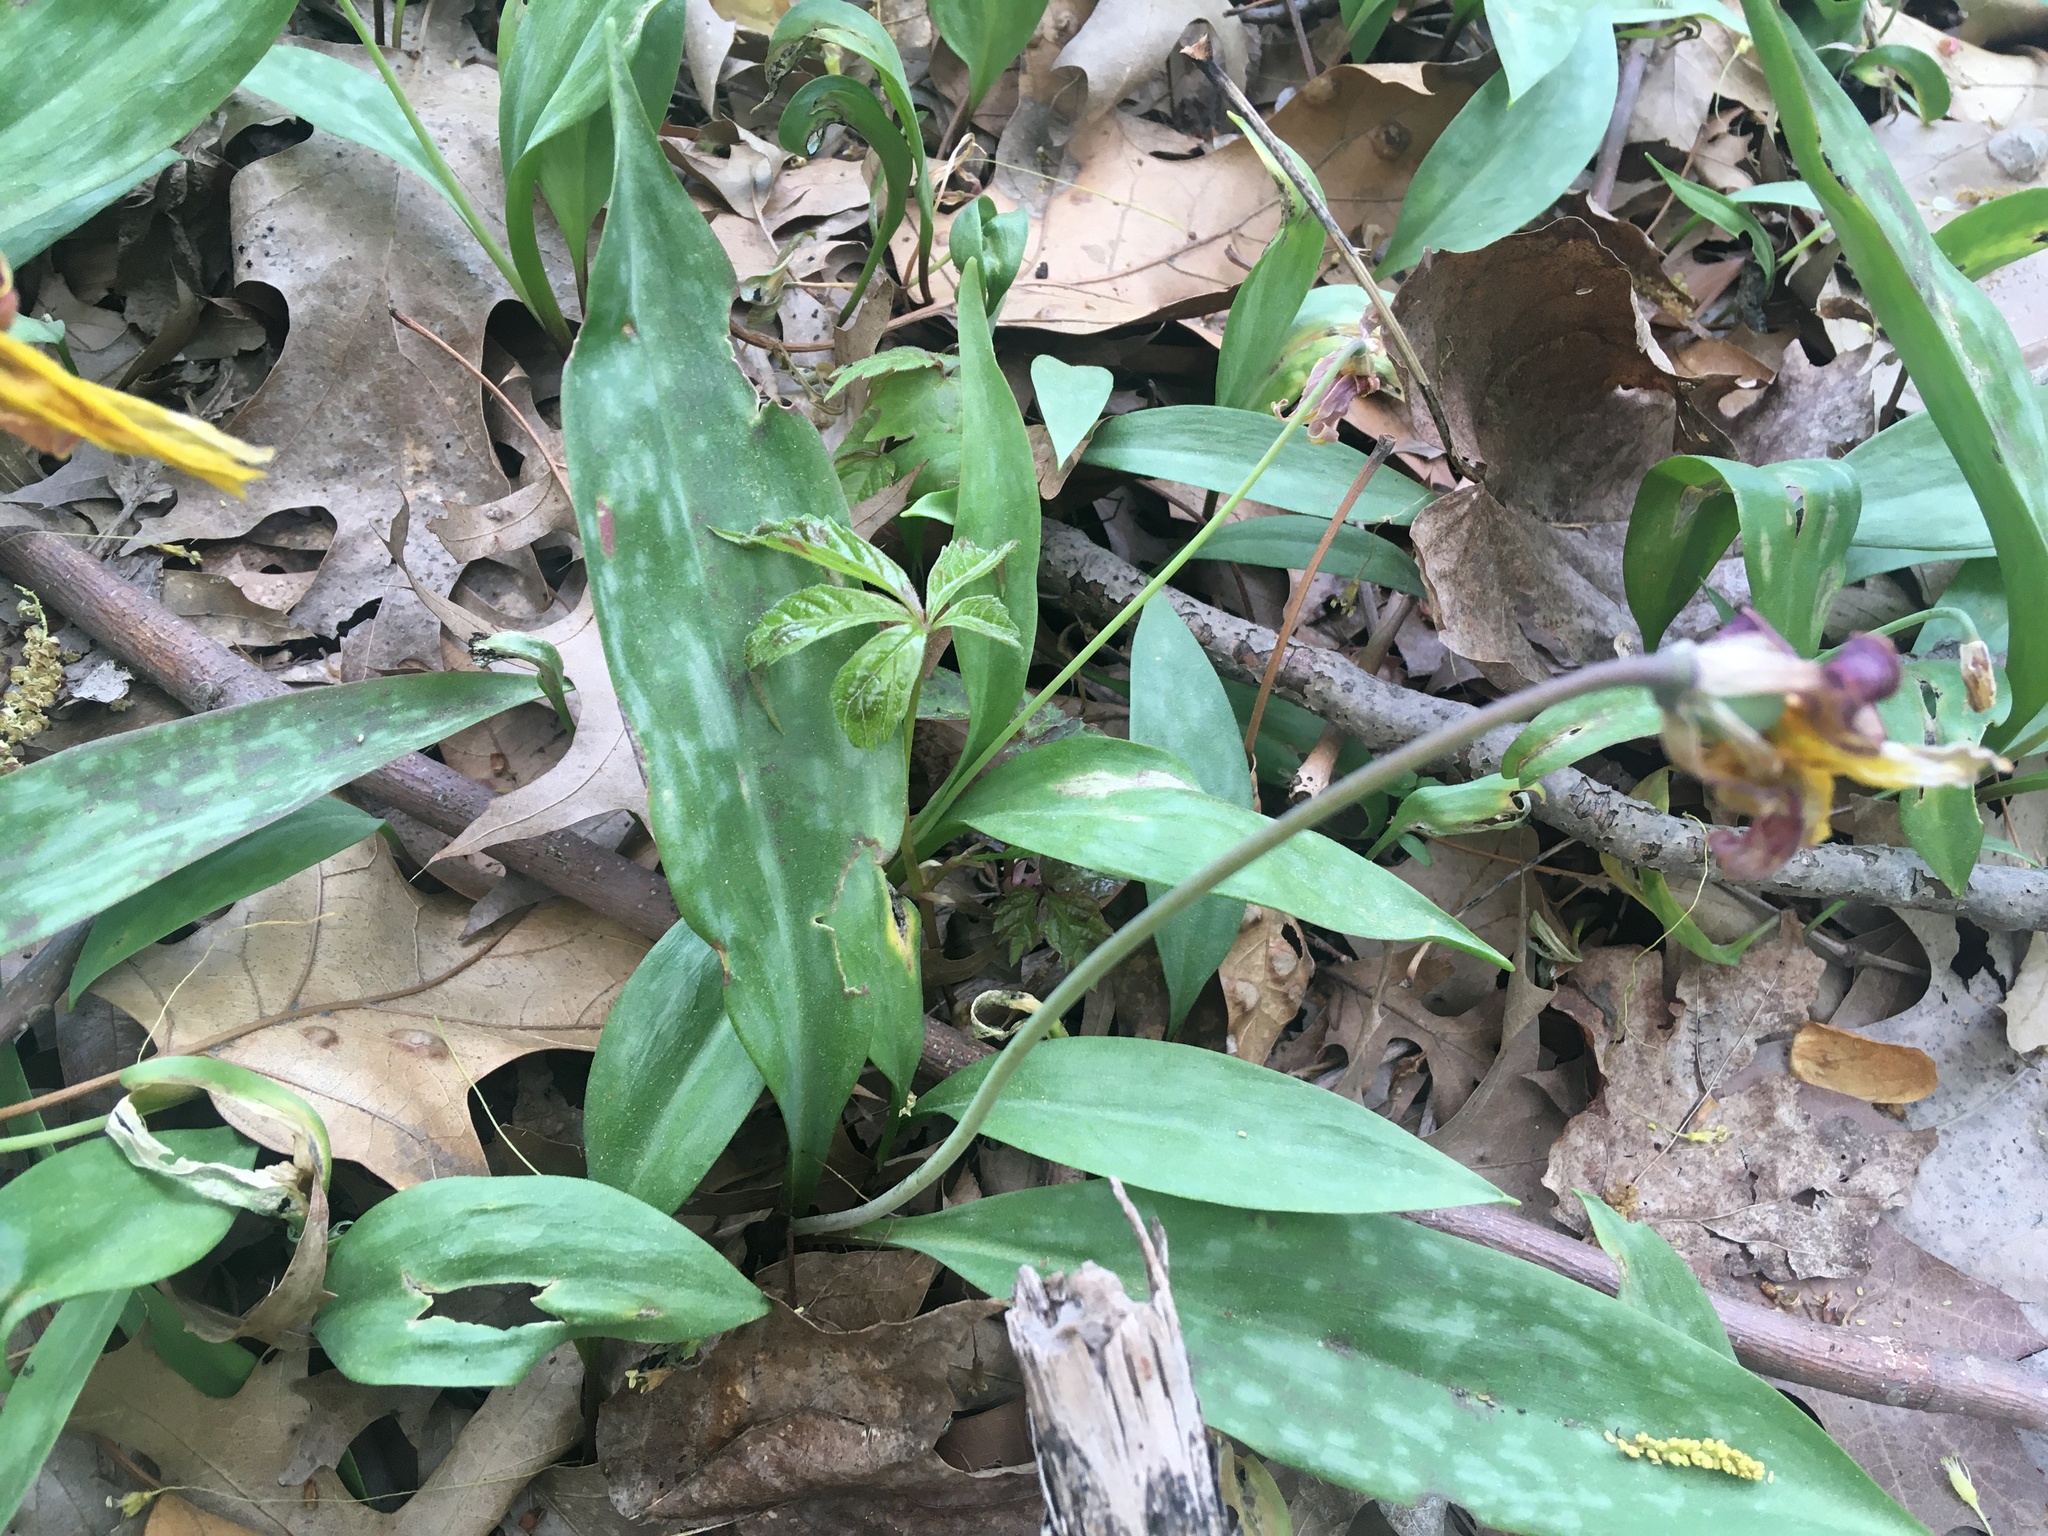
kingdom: Plantae
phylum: Tracheophyta
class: Liliopsida
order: Liliales
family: Liliaceae
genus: Erythronium
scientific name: Erythronium americanum
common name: Yellow adder's-tongue
